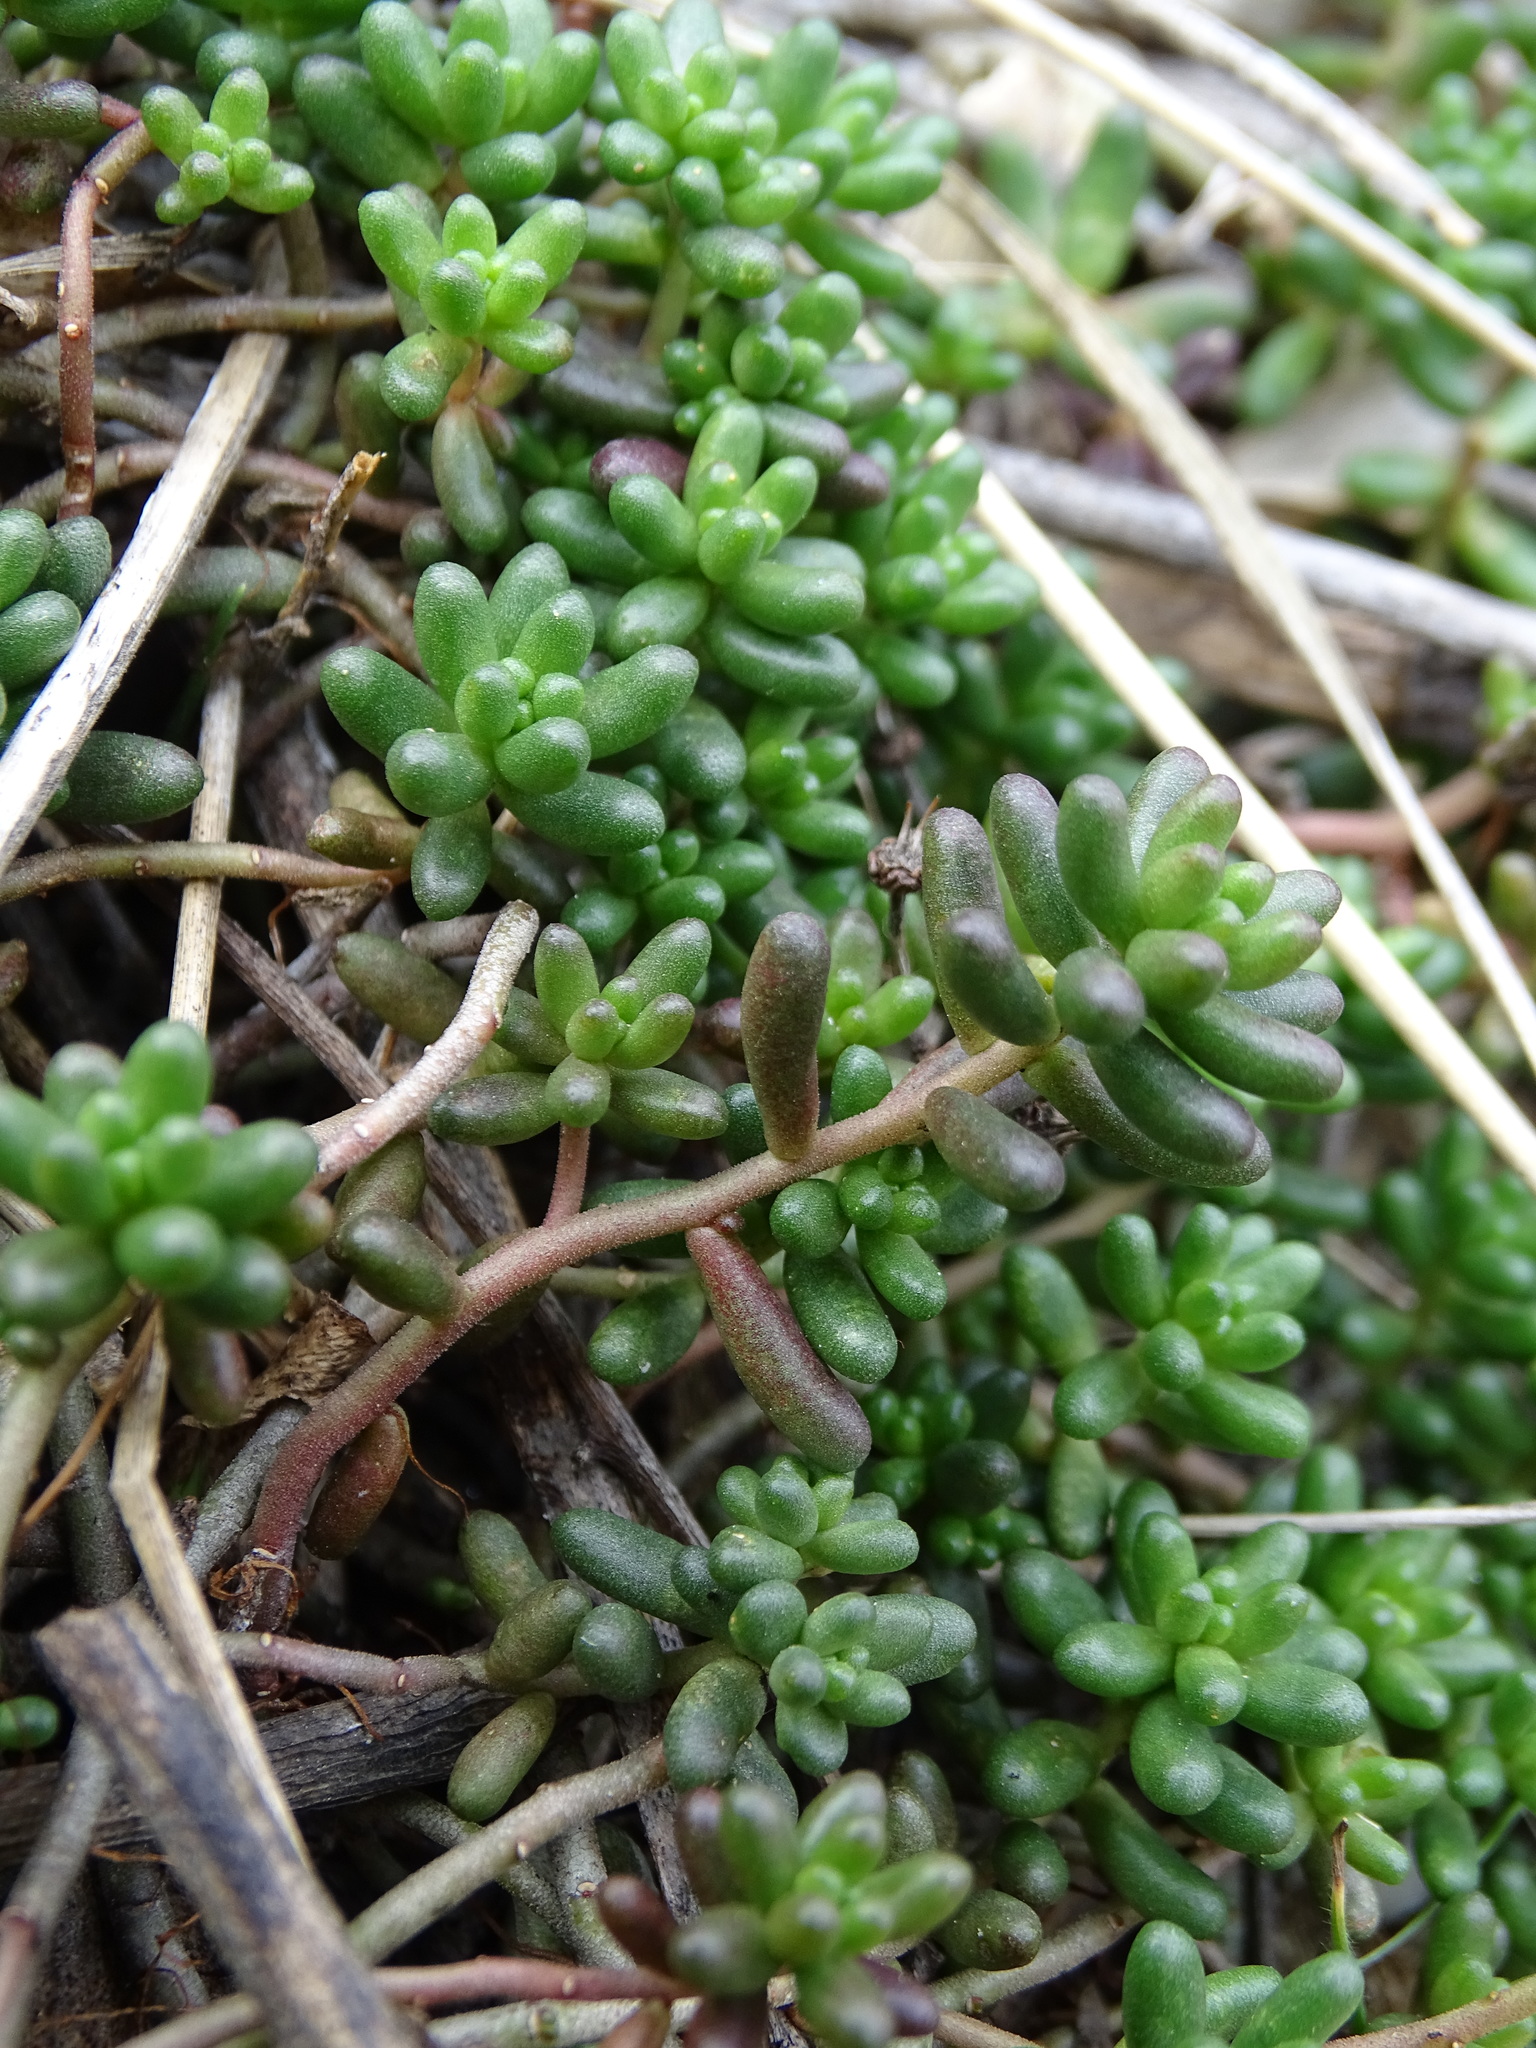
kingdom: Plantae
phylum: Tracheophyta
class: Magnoliopsida
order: Saxifragales
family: Crassulaceae
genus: Sedum
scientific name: Sedum album
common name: White stonecrop
